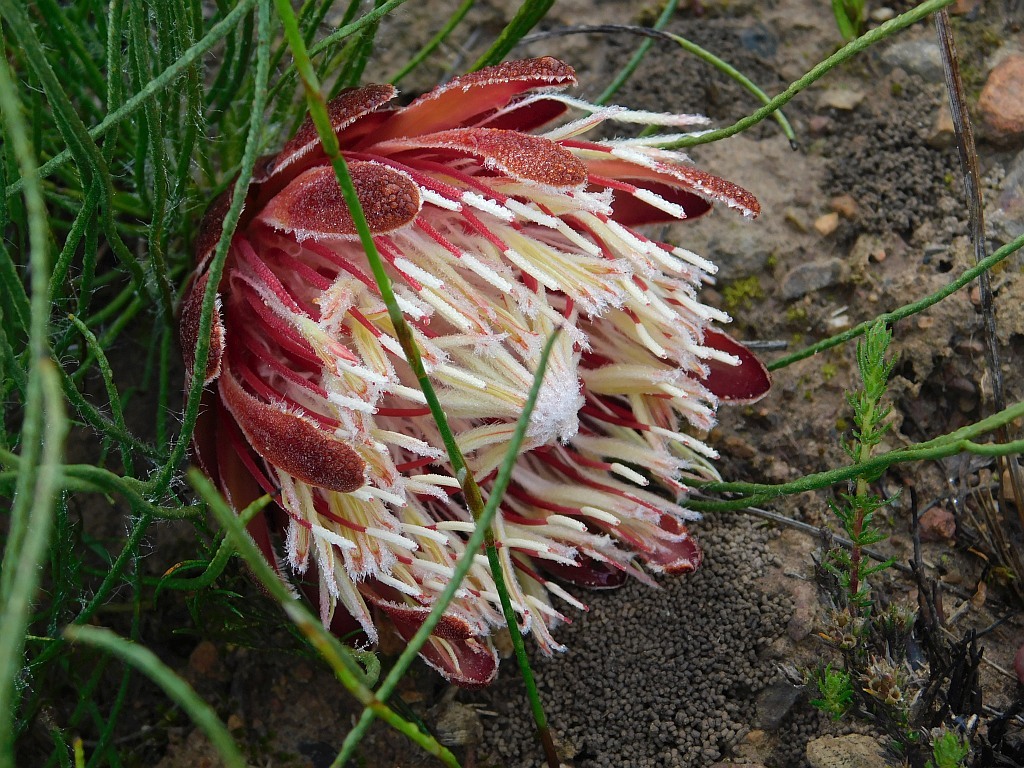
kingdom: Plantae
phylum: Tracheophyta
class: Magnoliopsida
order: Proteales
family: Proteaceae
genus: Protea
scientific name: Protea restionifolia
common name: Reed-leaf sugarbush
